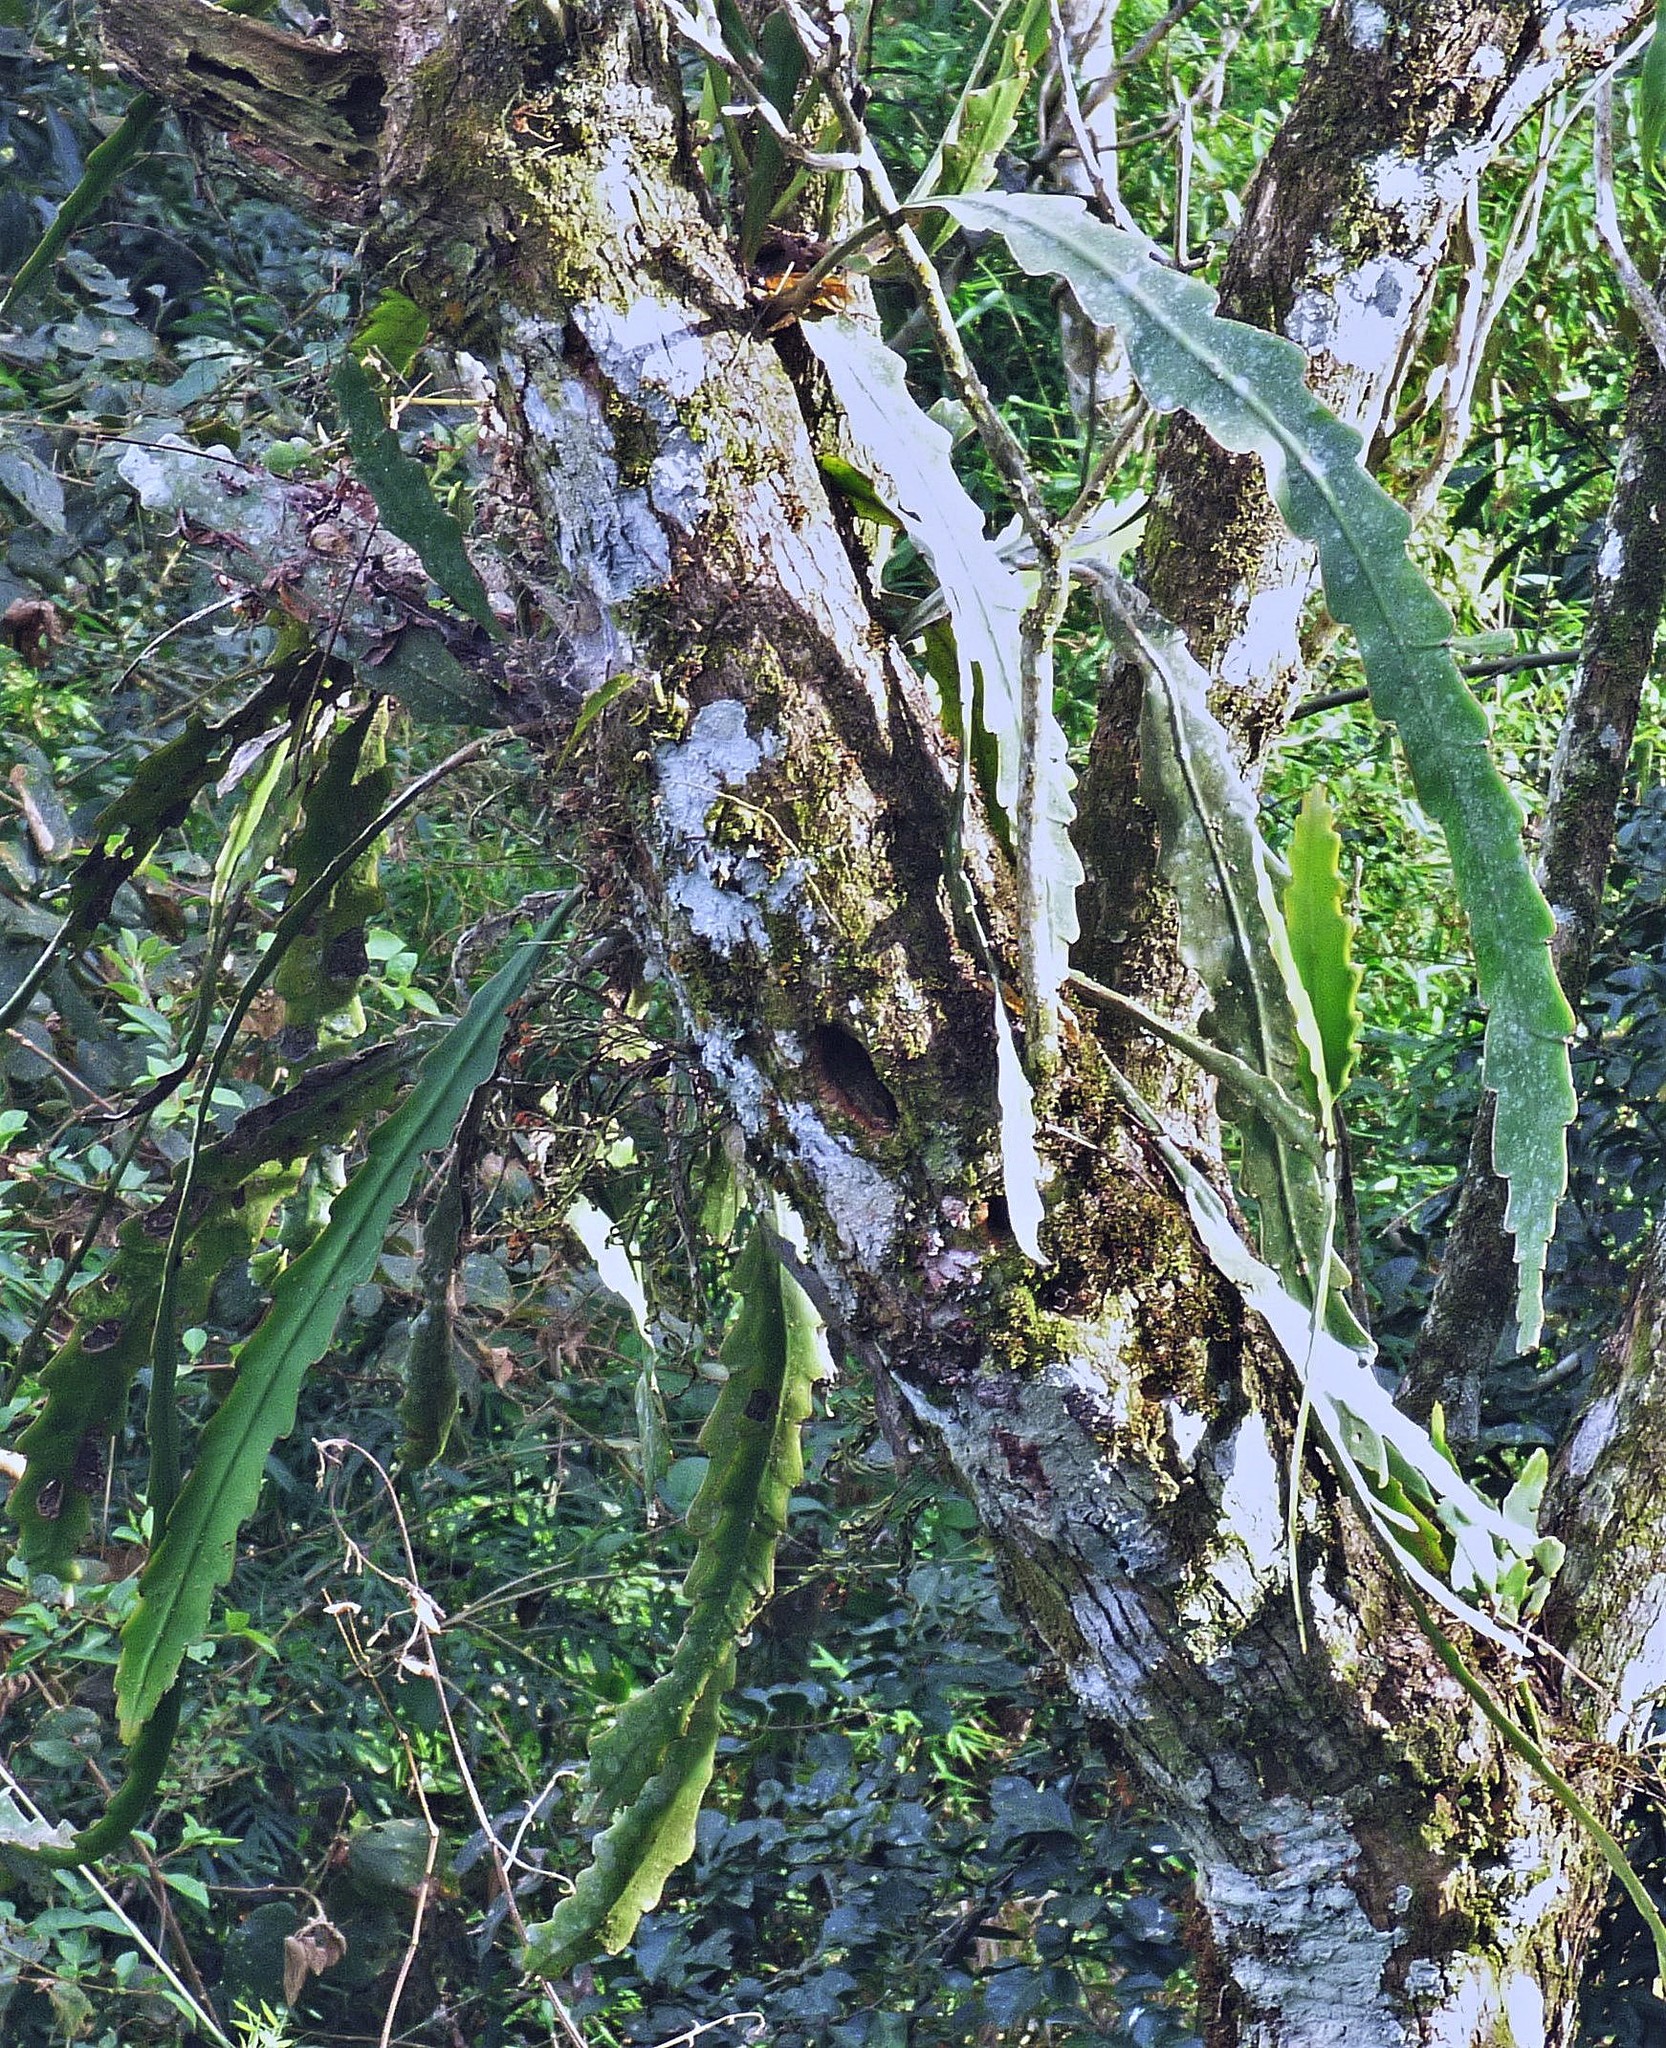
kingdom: Plantae
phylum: Tracheophyta
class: Magnoliopsida
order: Caryophyllales
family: Cactaceae
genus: Epiphyllum
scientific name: Epiphyllum phyllanthus
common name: Climbing cactus
